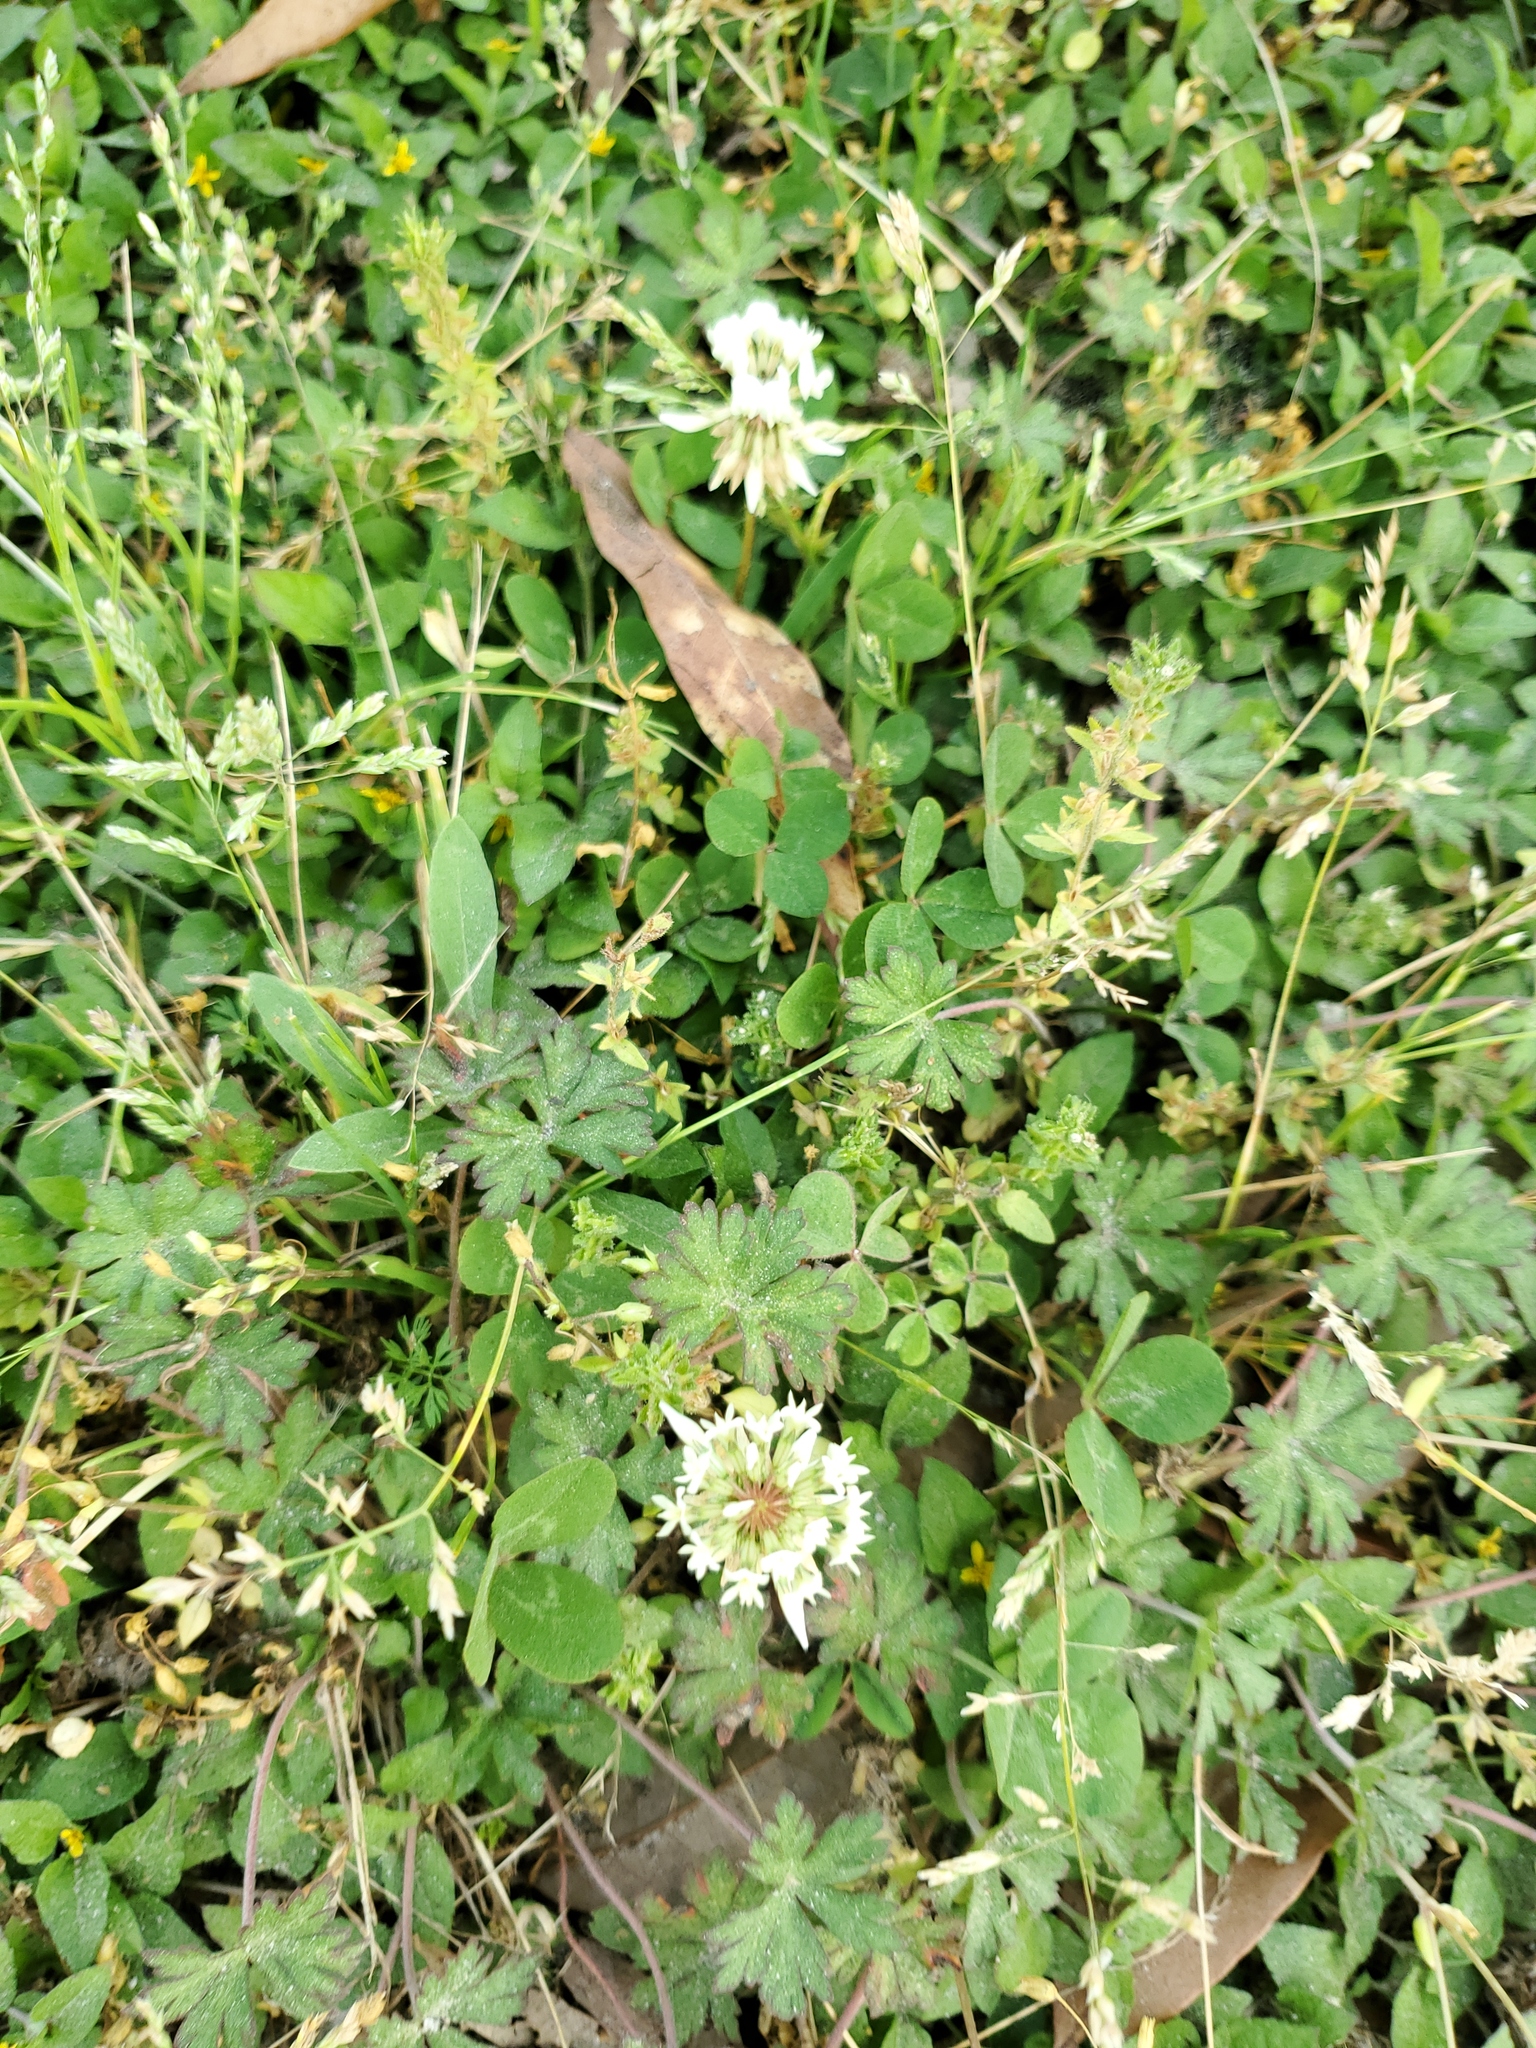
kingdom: Plantae
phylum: Tracheophyta
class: Magnoliopsida
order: Fabales
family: Fabaceae
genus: Trifolium
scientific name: Trifolium repens
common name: White clover
